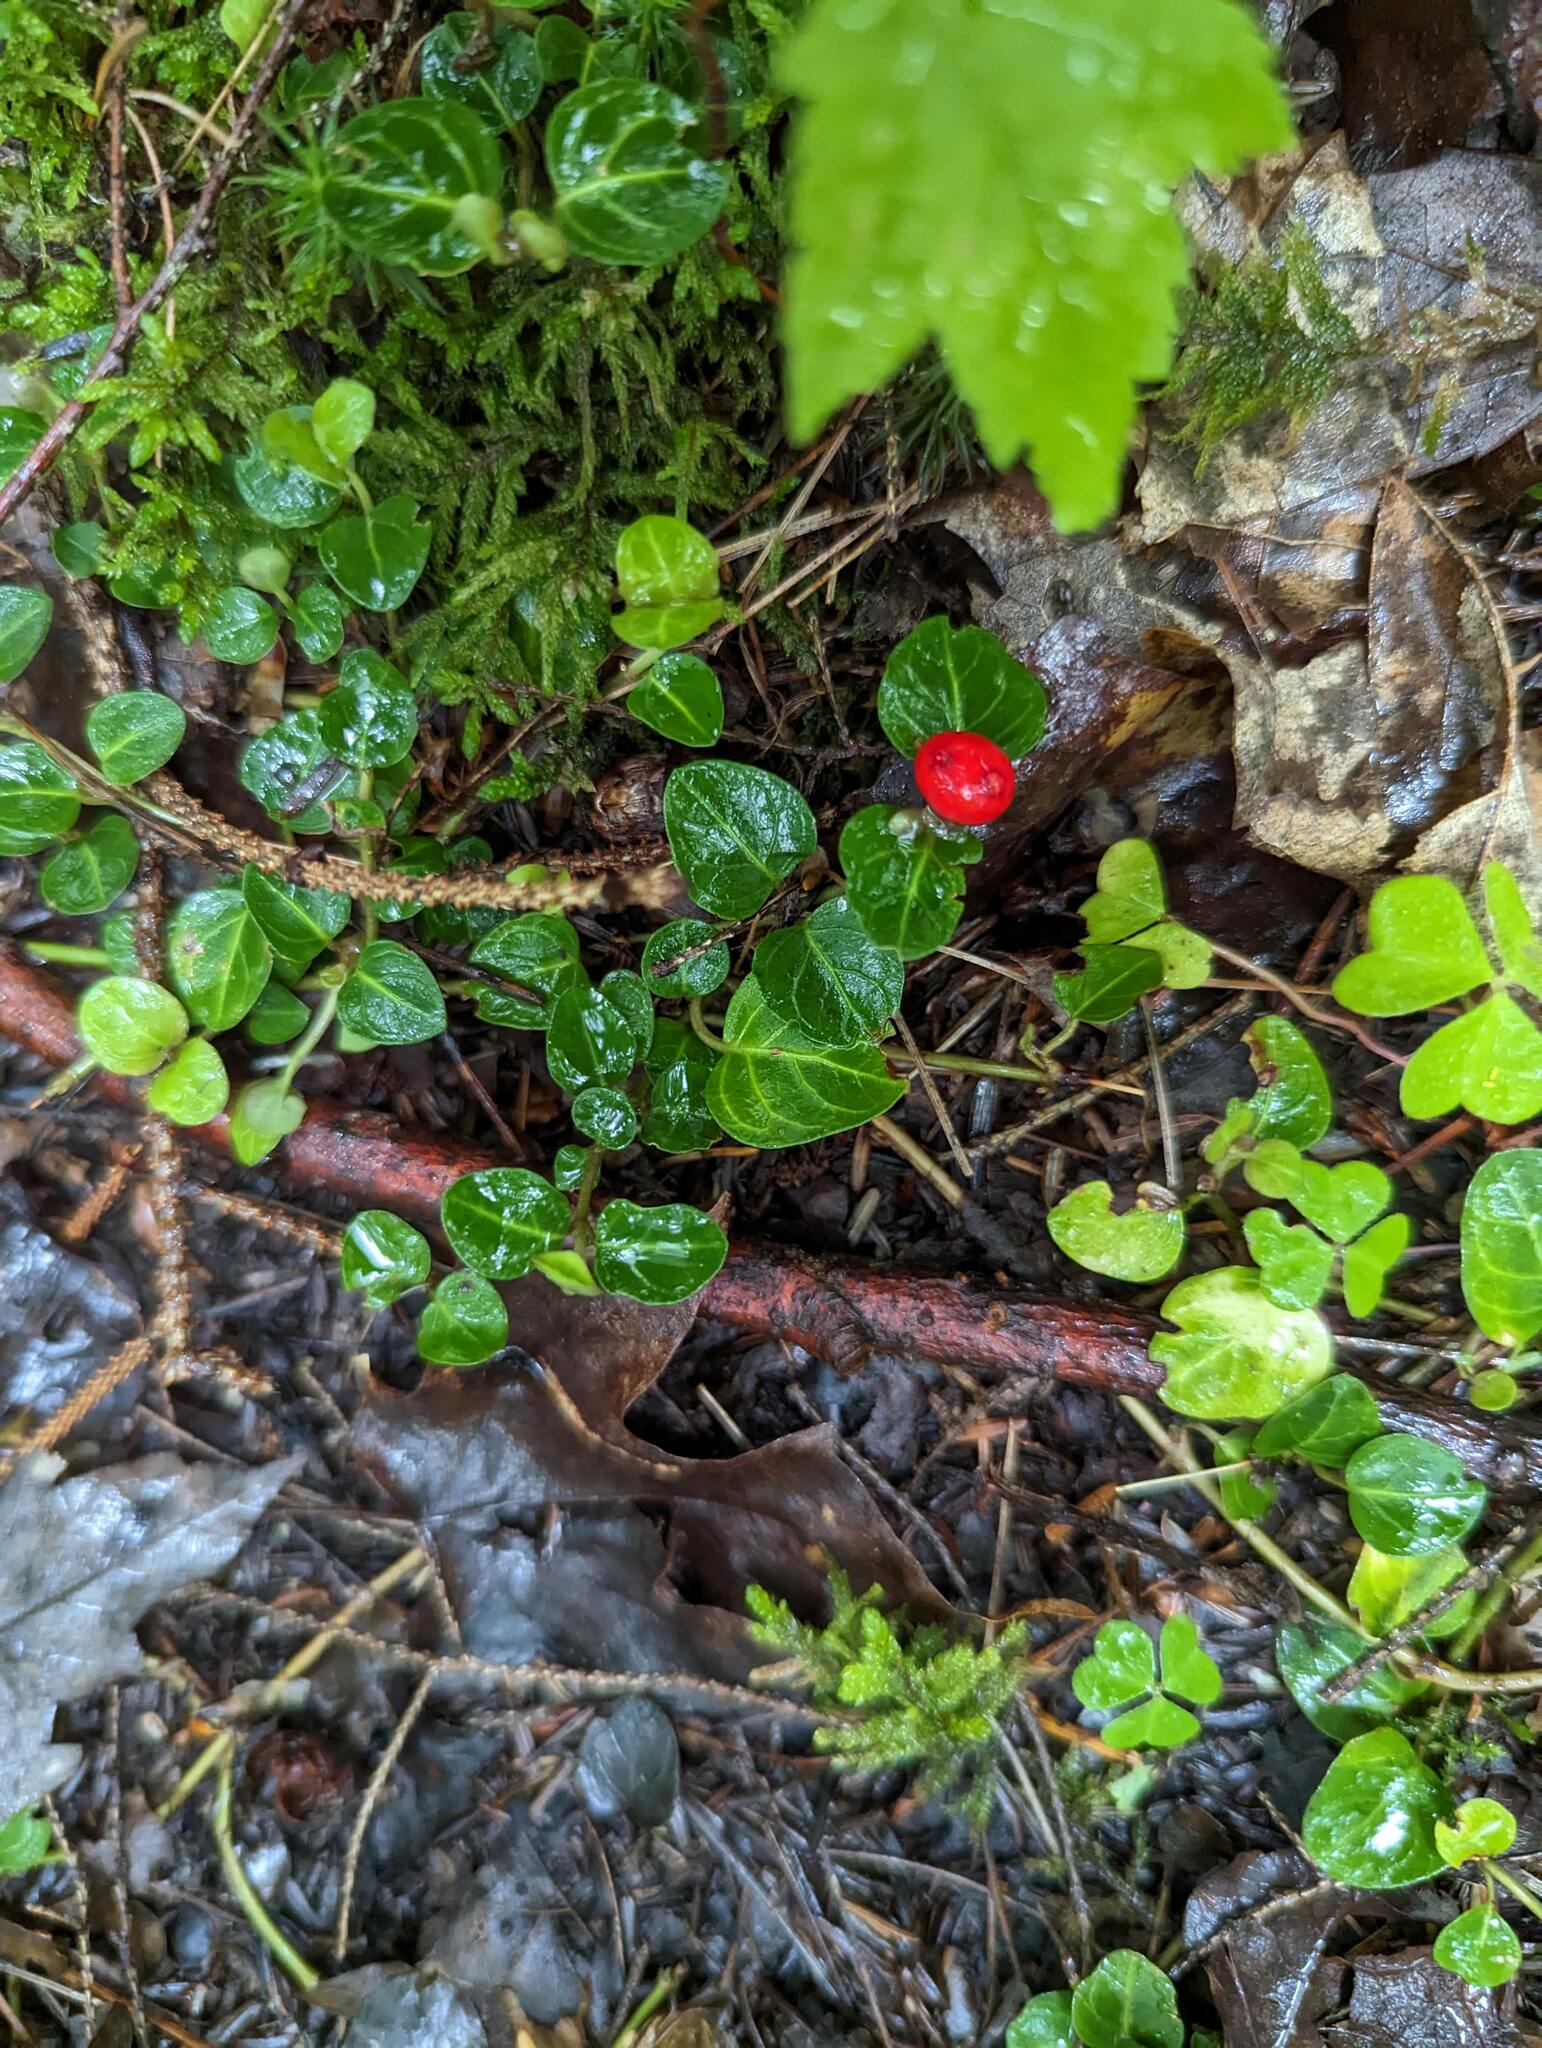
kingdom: Plantae
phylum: Tracheophyta
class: Magnoliopsida
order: Gentianales
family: Rubiaceae
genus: Mitchella
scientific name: Mitchella repens
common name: Partridge-berry
